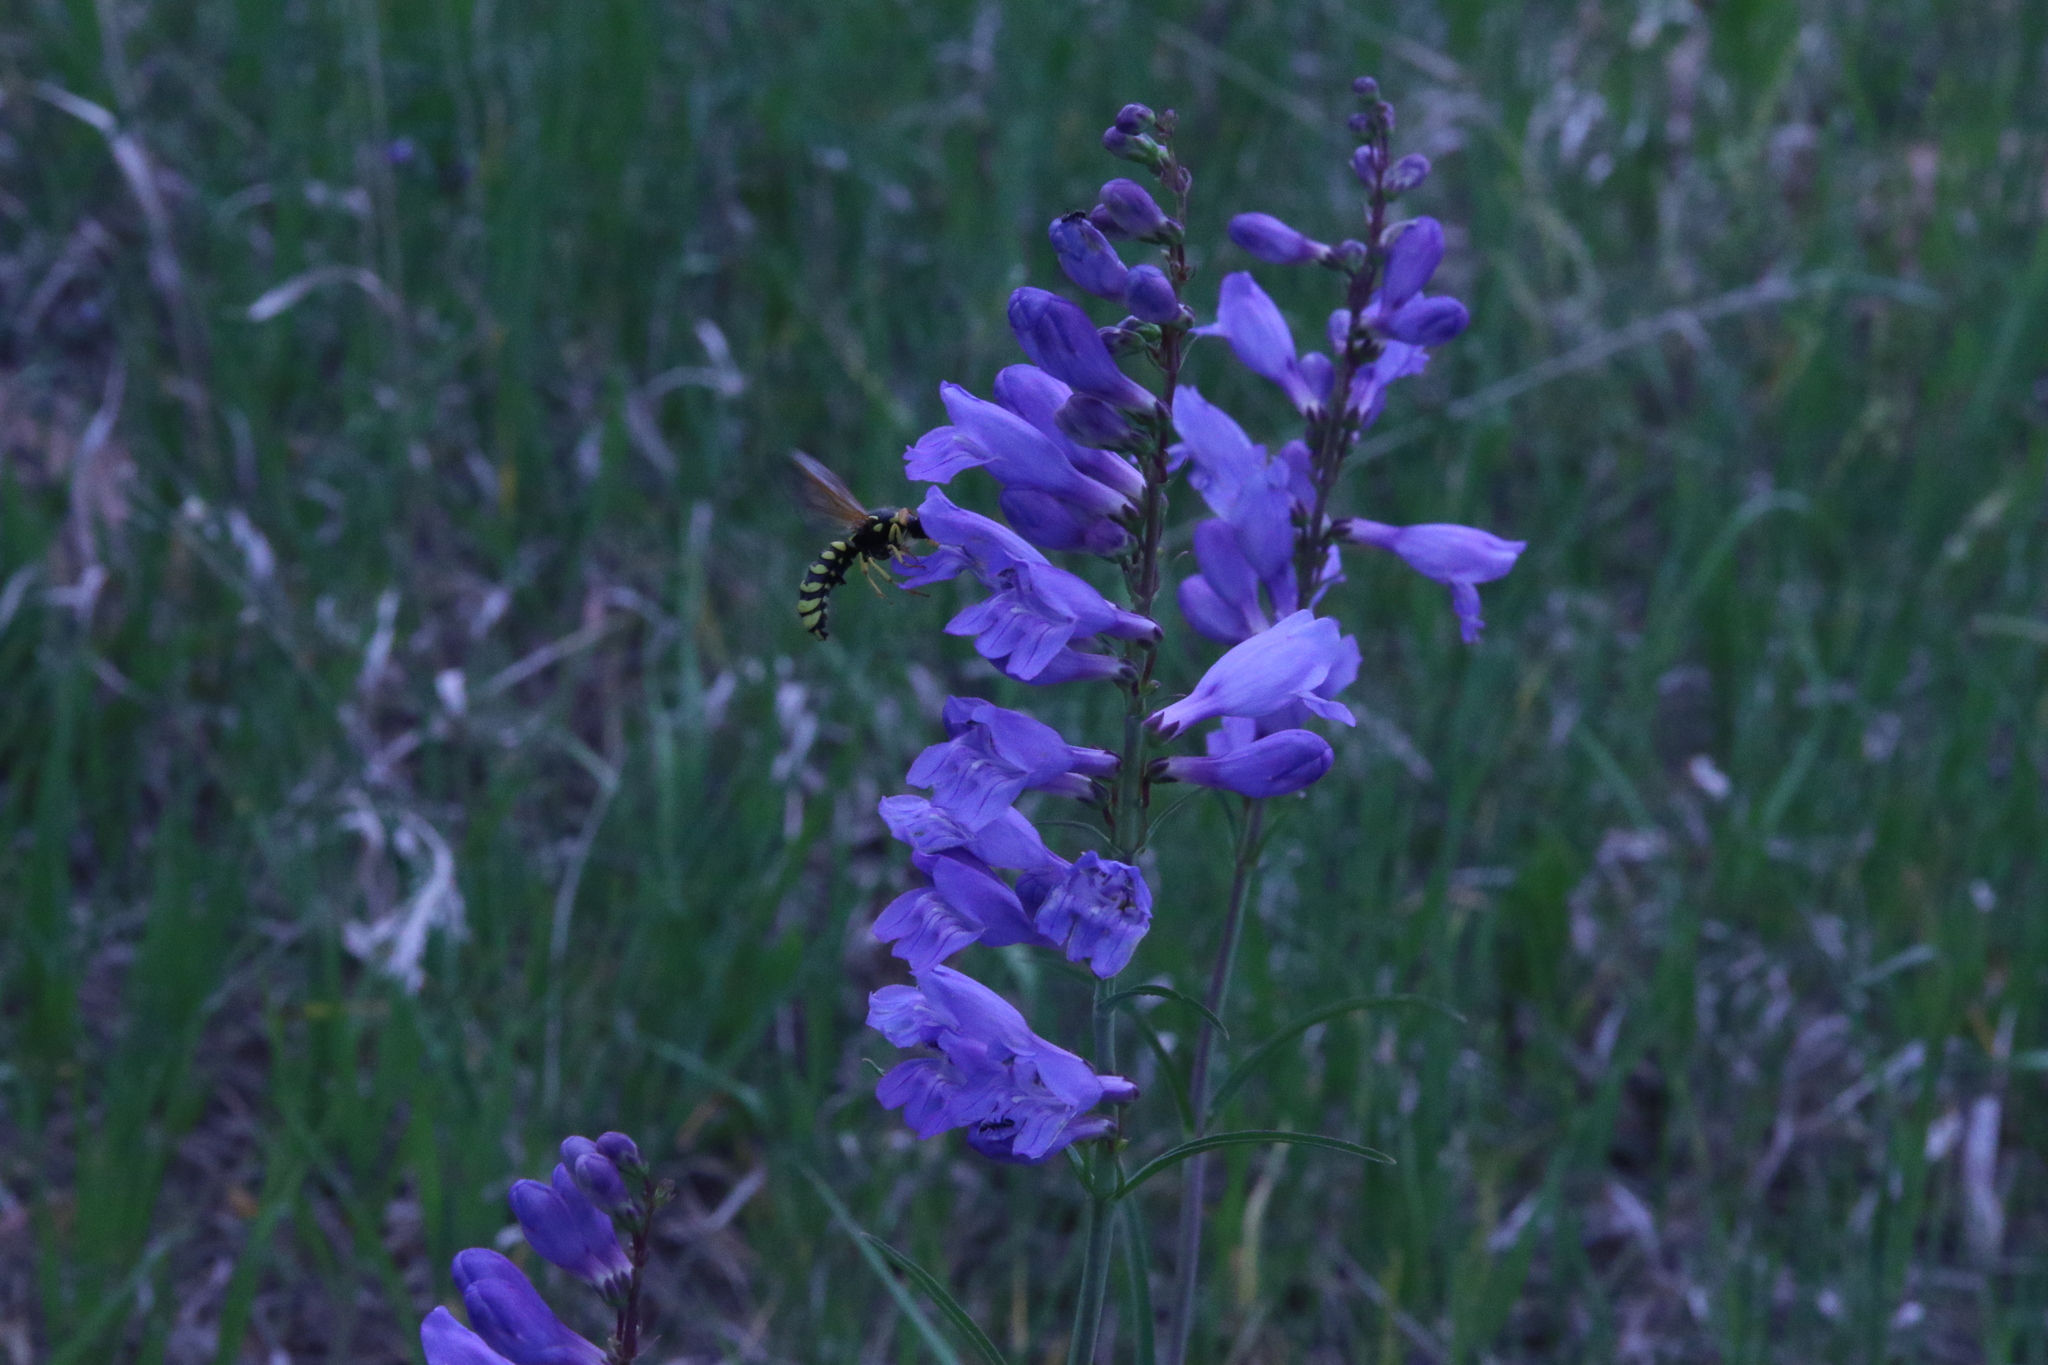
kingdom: Animalia
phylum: Arthropoda
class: Insecta
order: Hymenoptera
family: Masaridae
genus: Pseudomasaris
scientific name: Pseudomasaris vespoides
